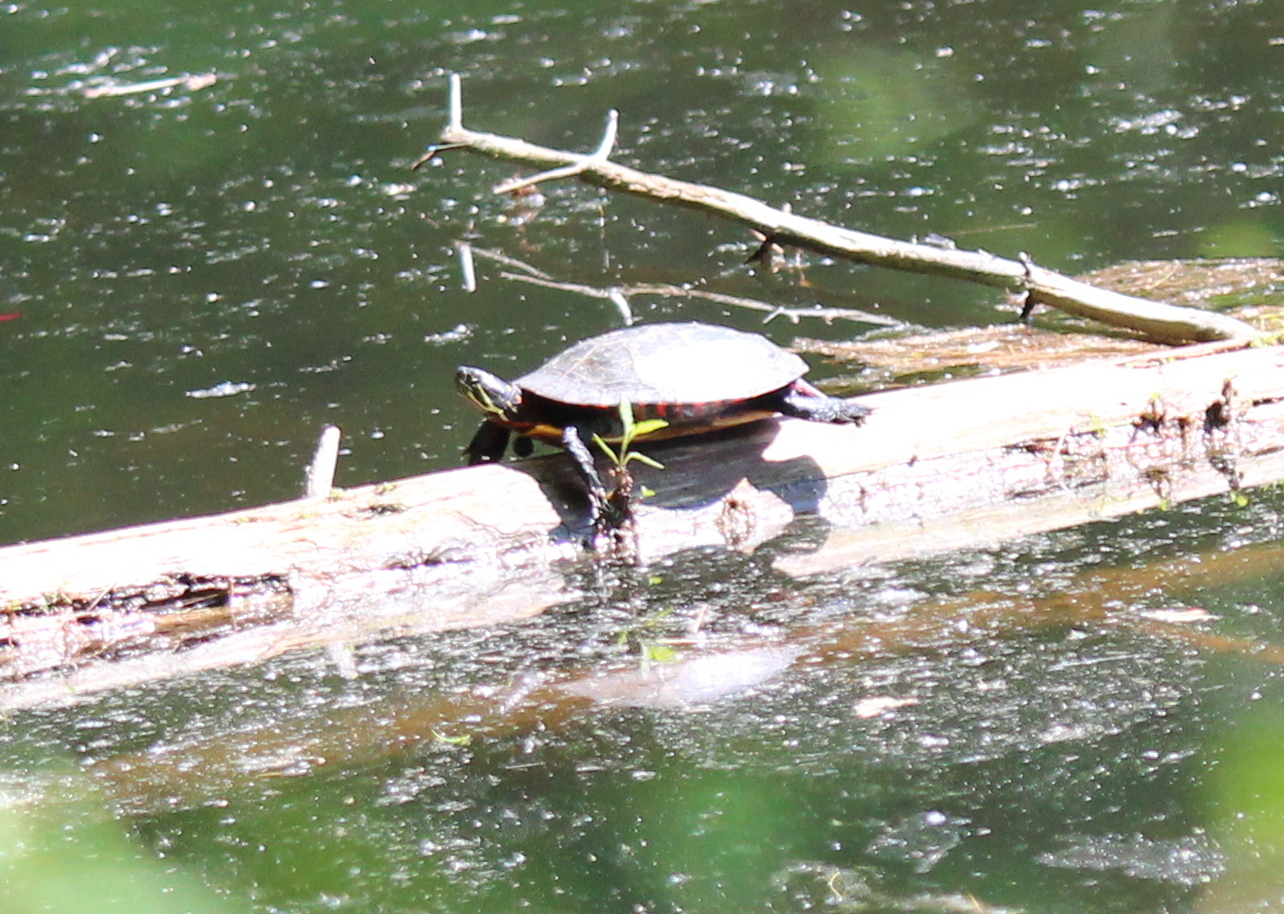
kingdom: Animalia
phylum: Chordata
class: Testudines
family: Emydidae
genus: Chrysemys
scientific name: Chrysemys picta
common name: Painted turtle
